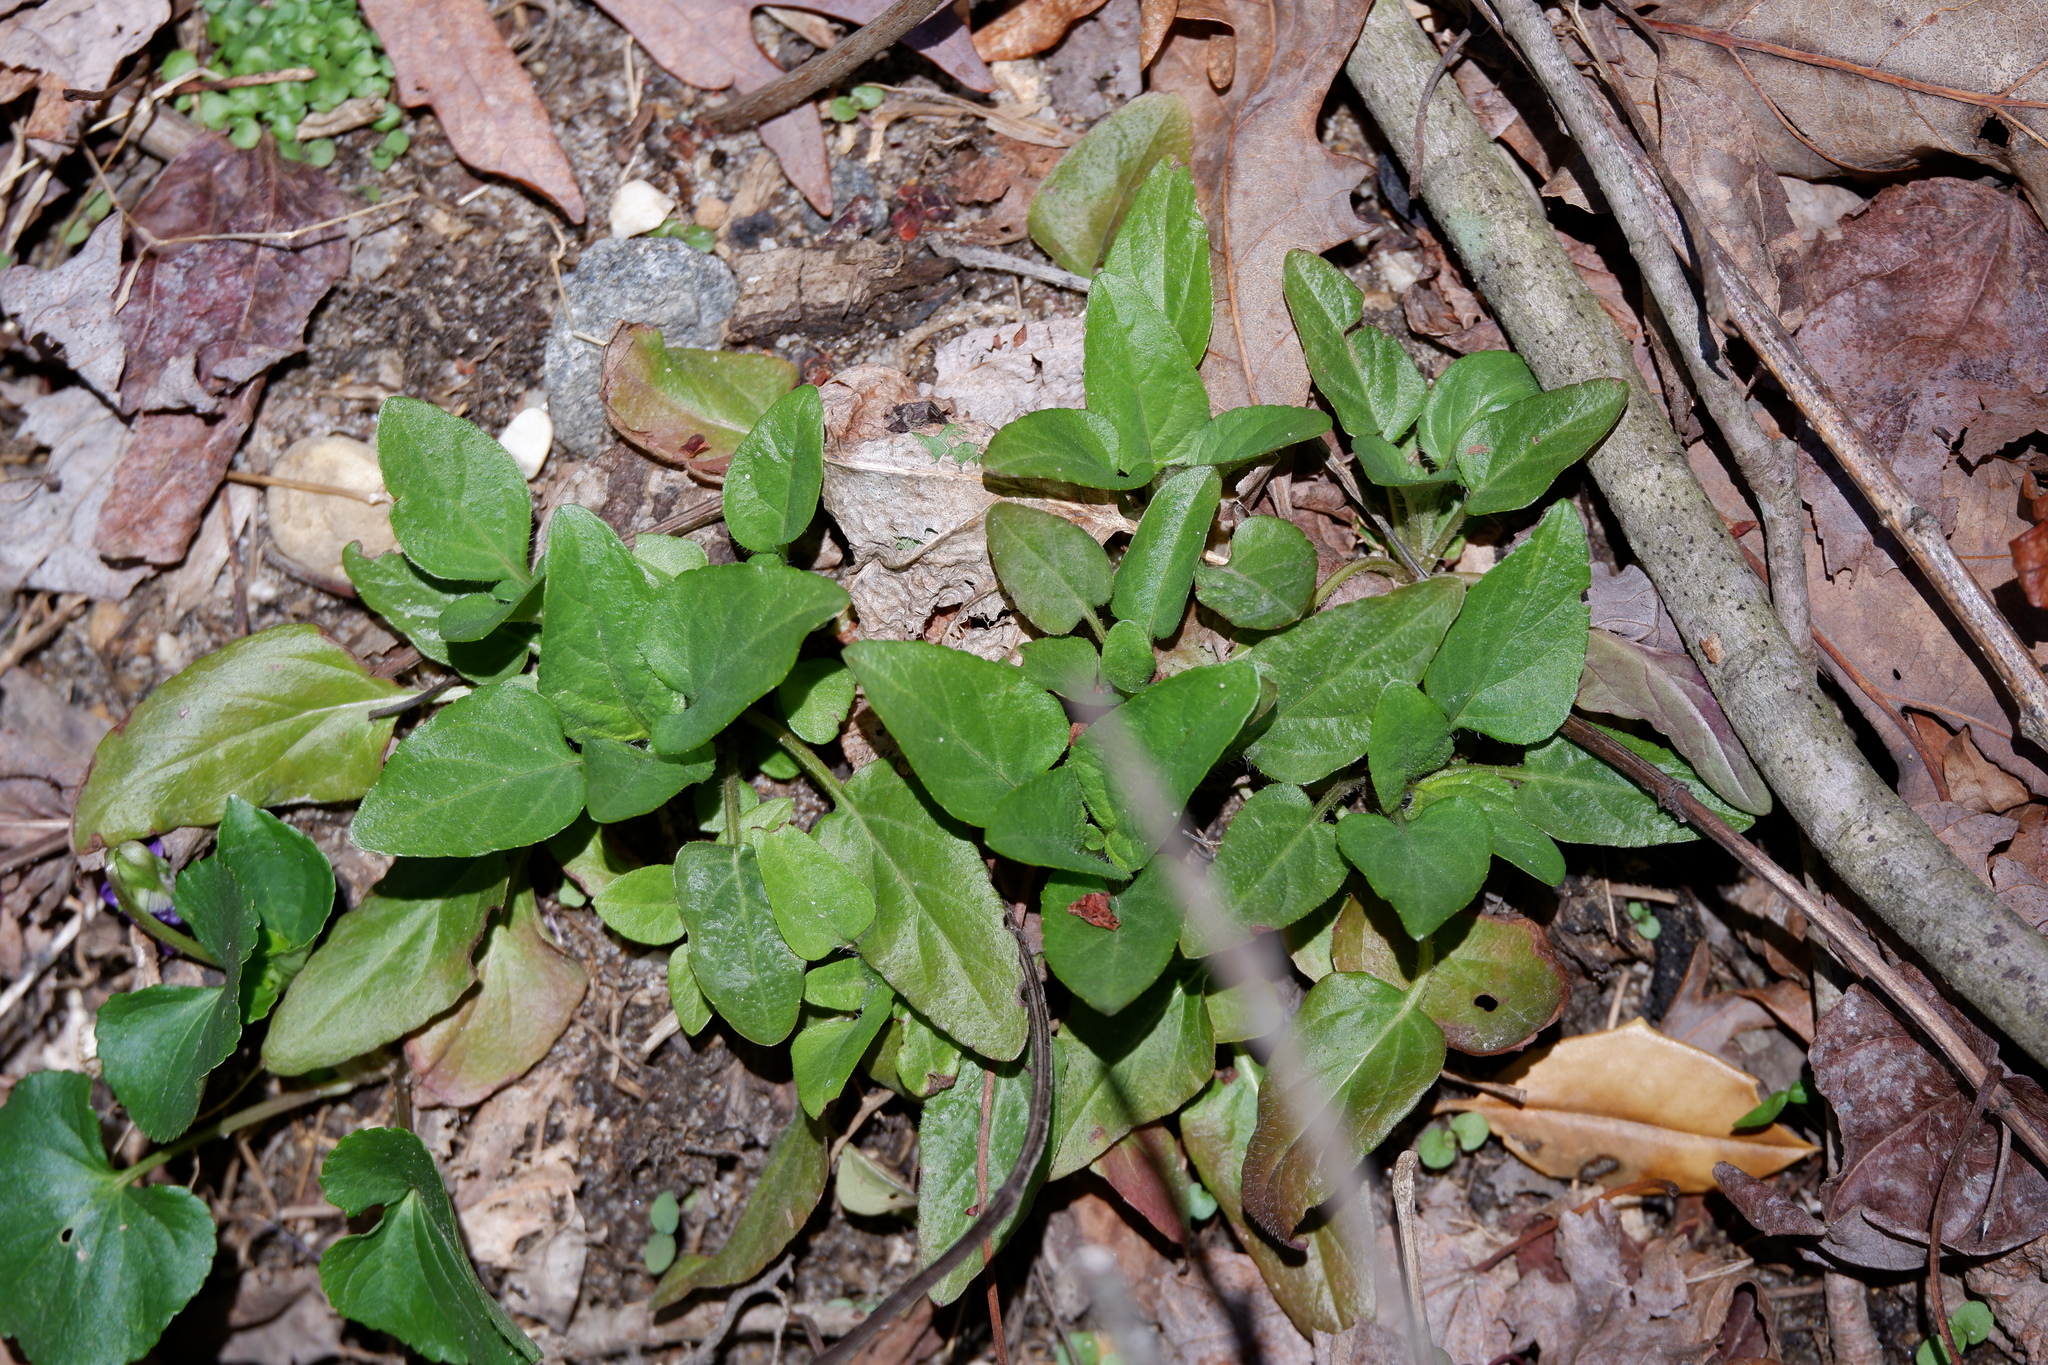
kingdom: Plantae
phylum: Tracheophyta
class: Magnoliopsida
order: Lamiales
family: Lamiaceae
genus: Prunella
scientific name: Prunella vulgaris
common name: Heal-all
